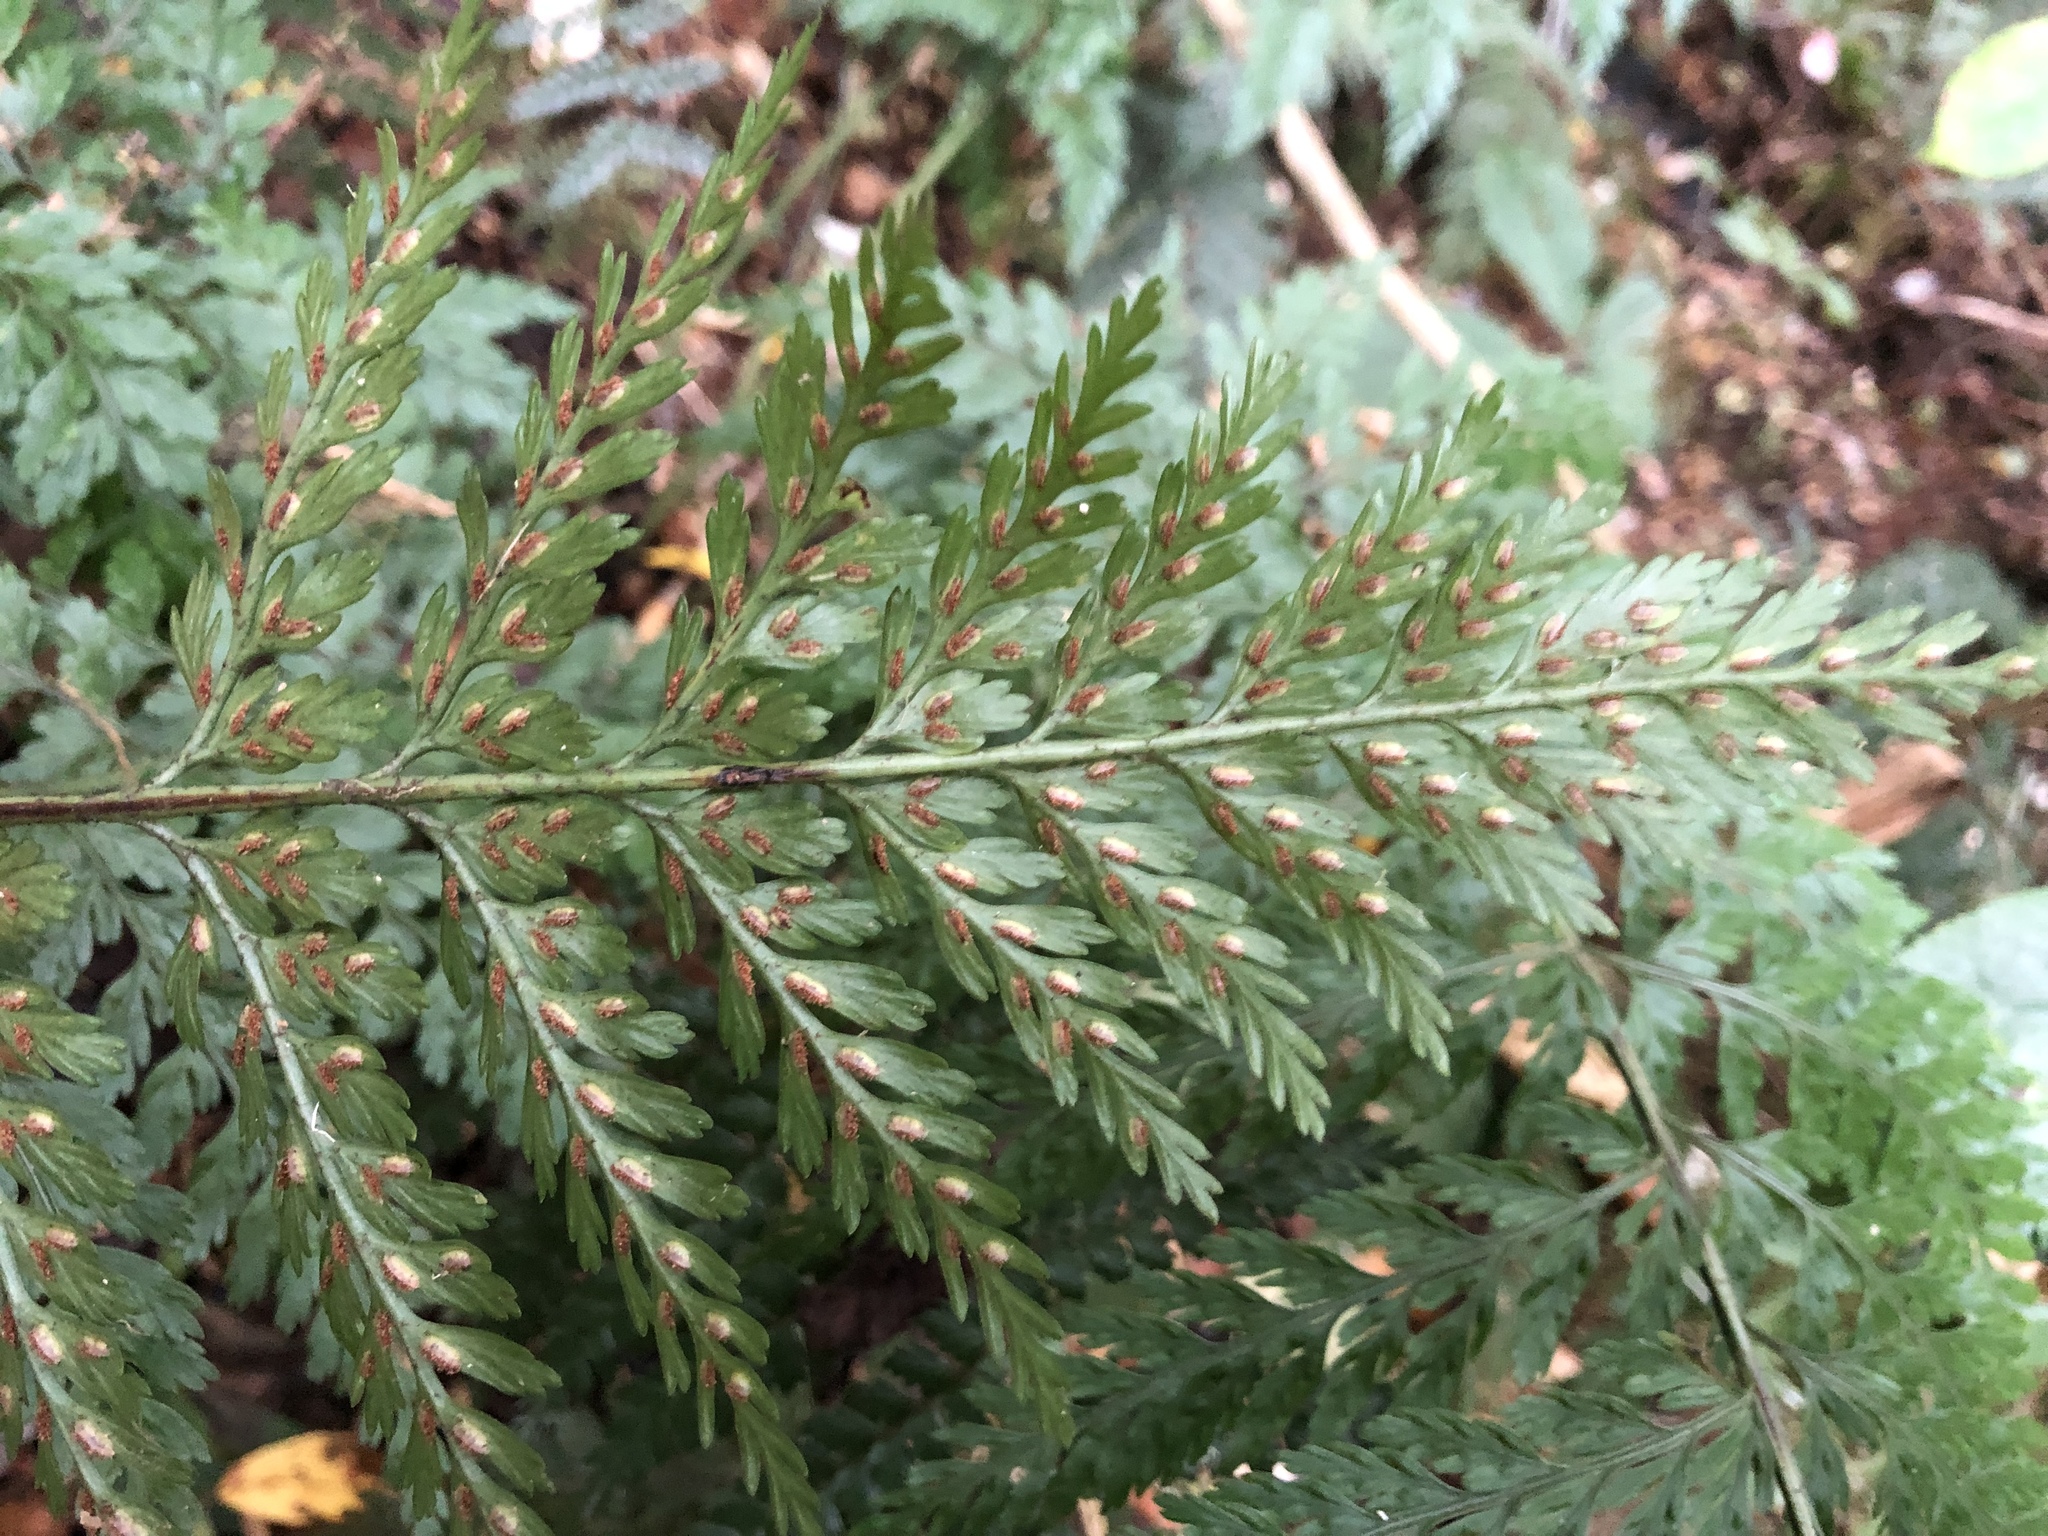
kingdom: Plantae
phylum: Tracheophyta
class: Polypodiopsida
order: Polypodiales
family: Aspleniaceae
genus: Asplenium
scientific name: Asplenium
